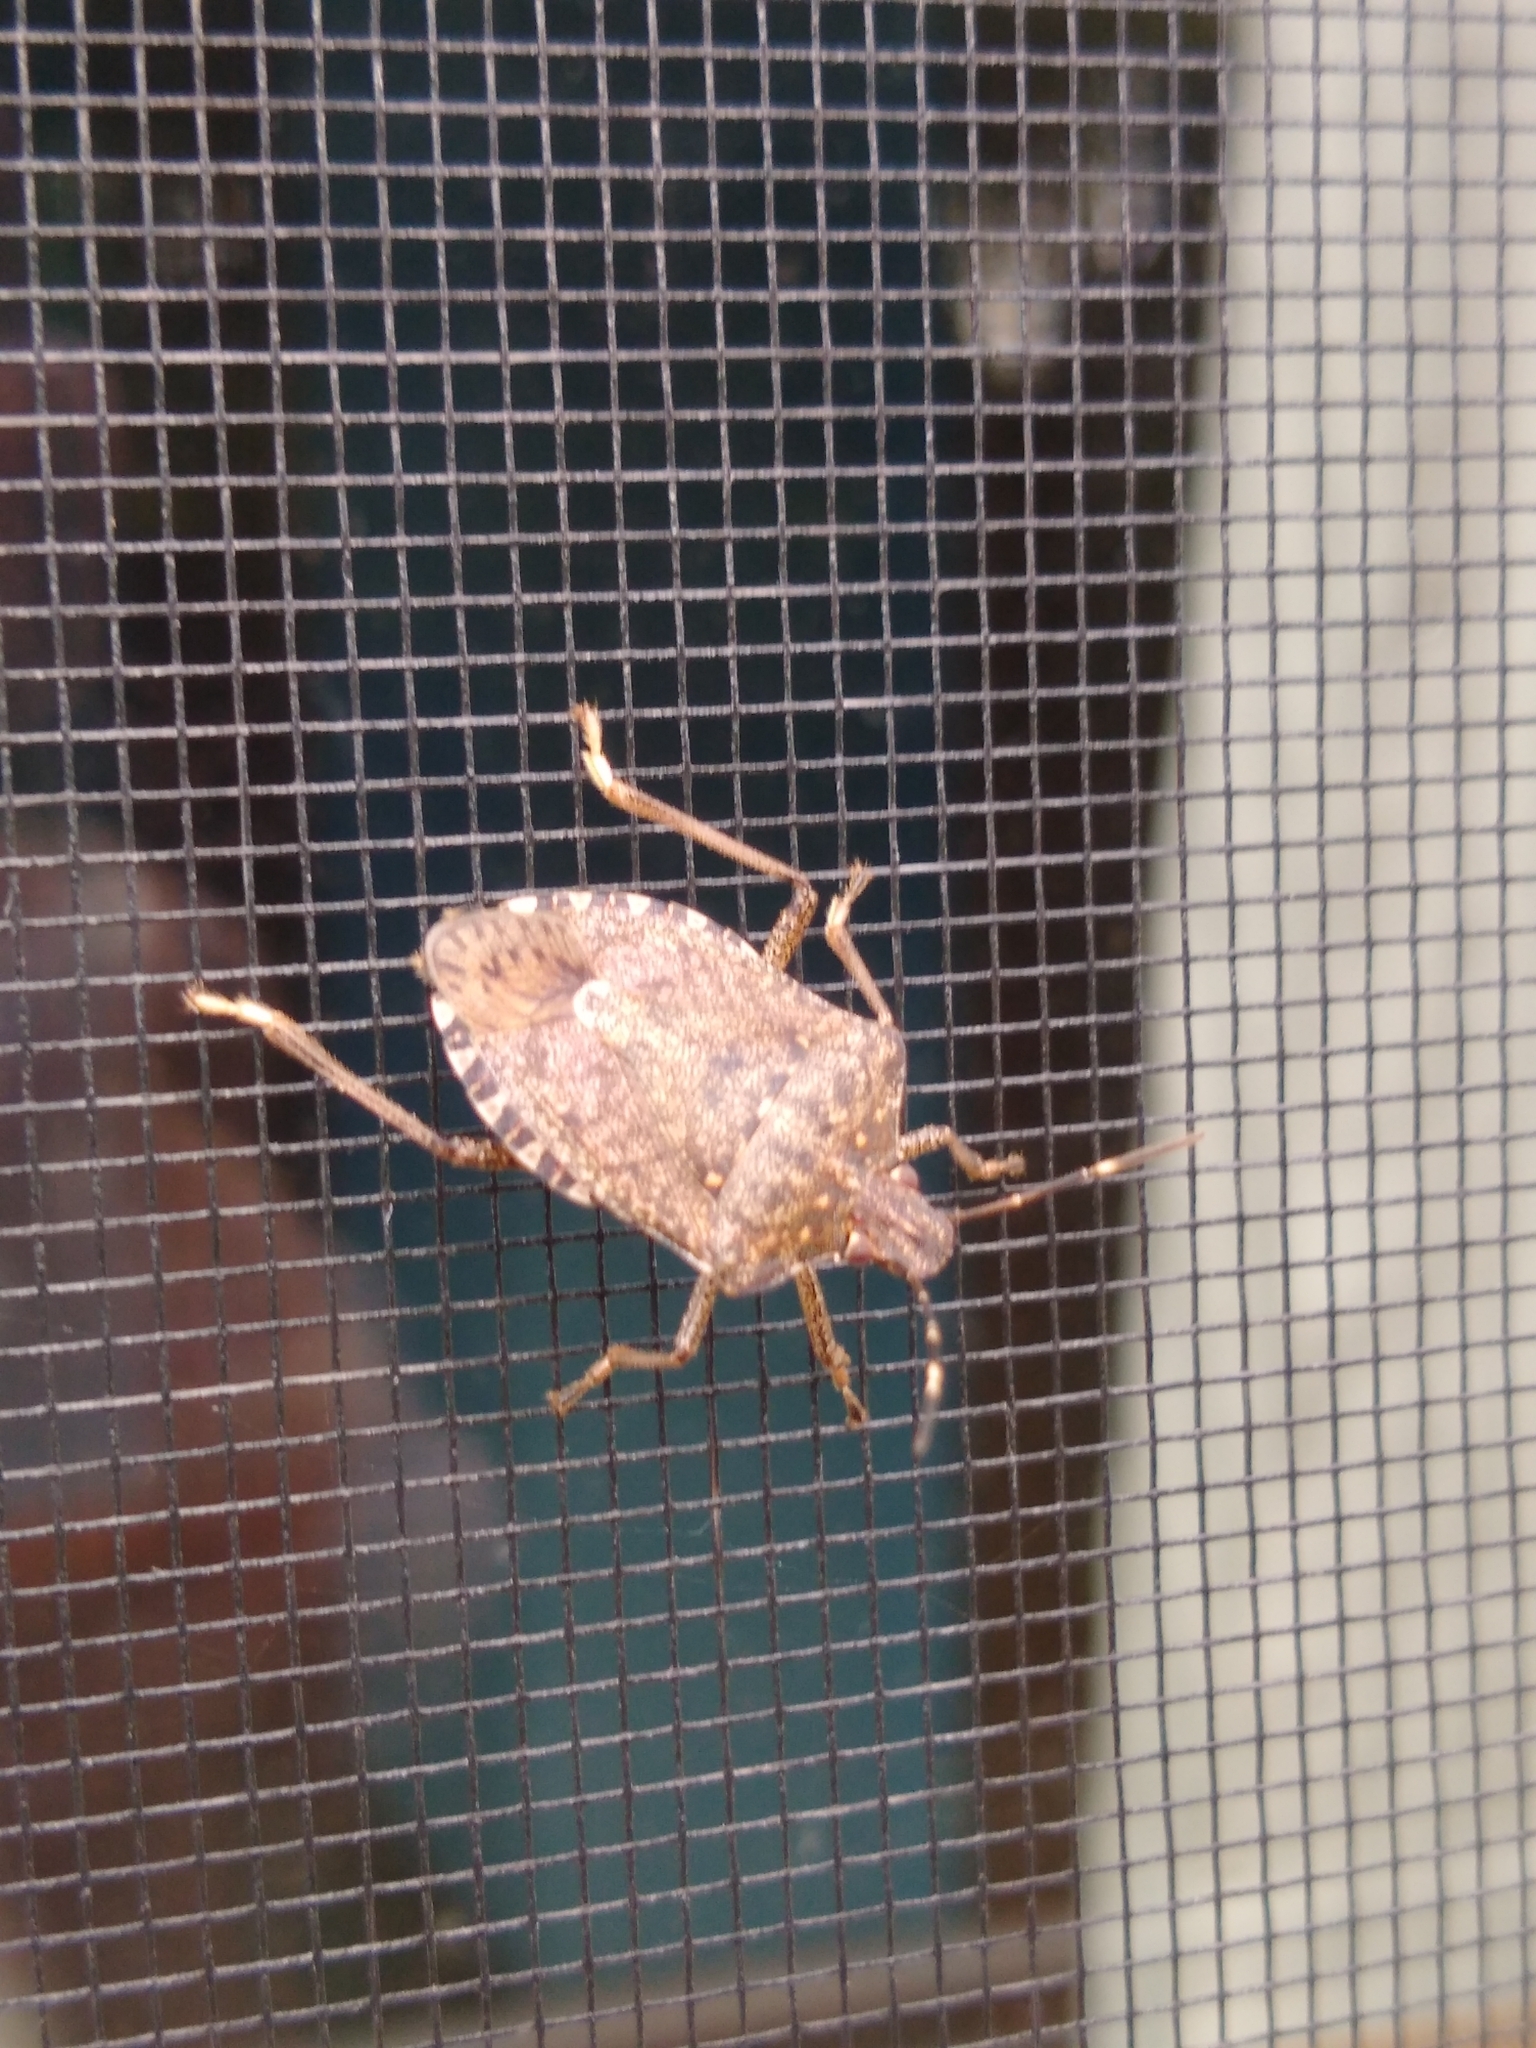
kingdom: Animalia
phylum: Arthropoda
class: Insecta
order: Hemiptera
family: Pentatomidae
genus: Halyomorpha
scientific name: Halyomorpha halys
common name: Brown marmorated stink bug
